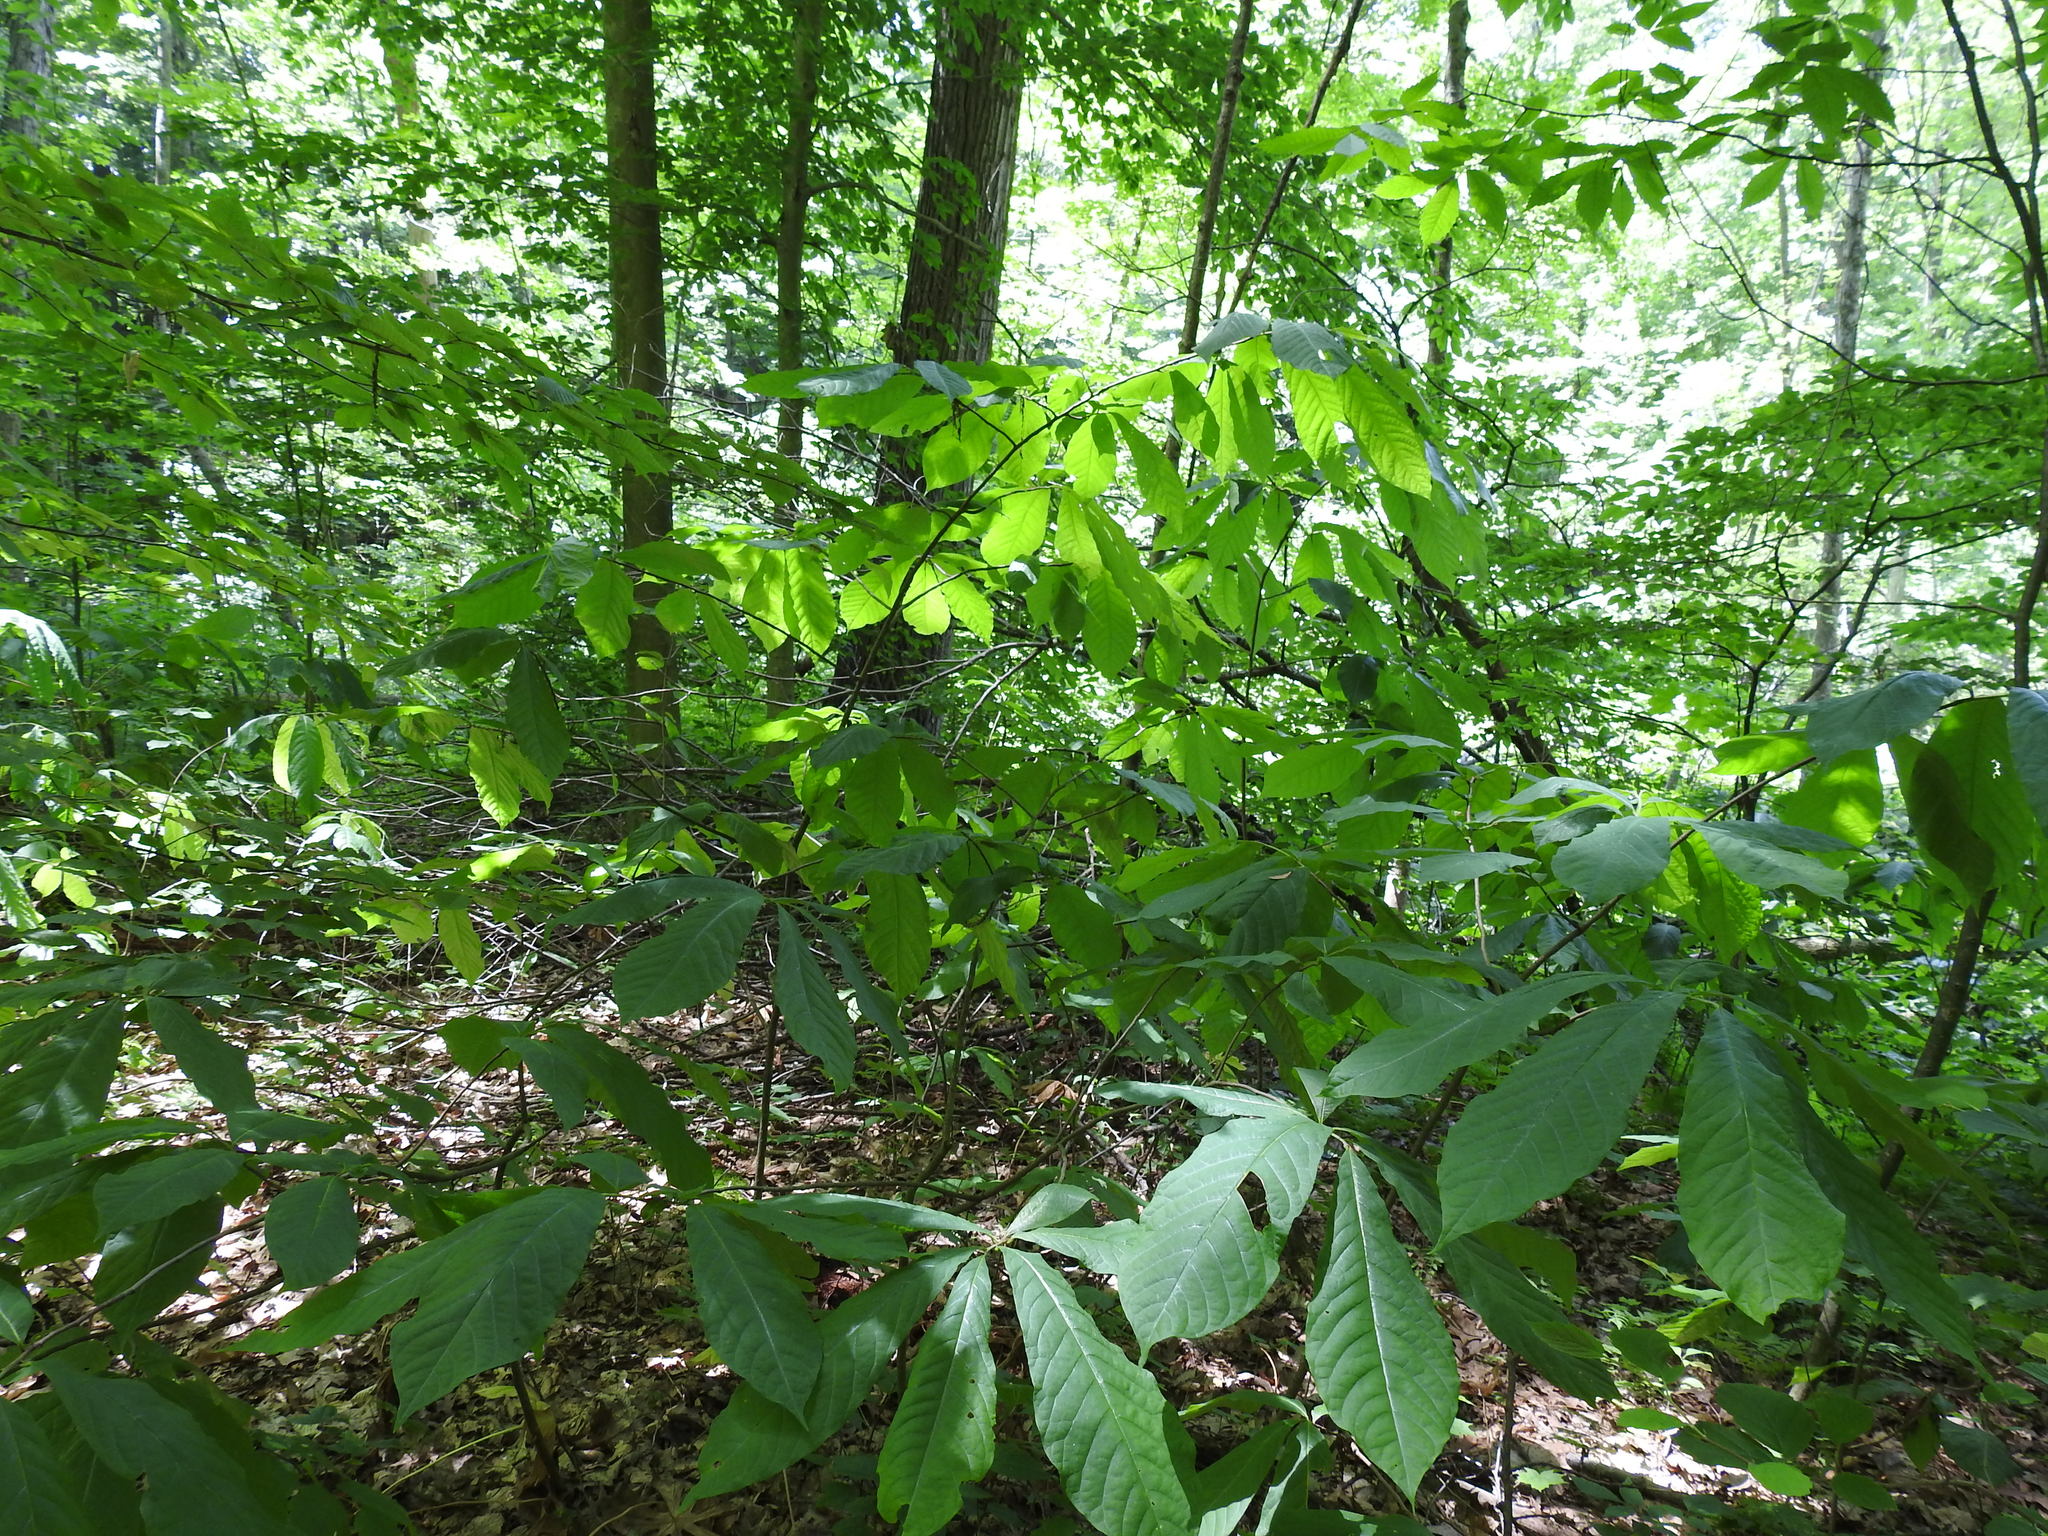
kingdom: Plantae
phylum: Tracheophyta
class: Magnoliopsida
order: Magnoliales
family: Annonaceae
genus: Asimina
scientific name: Asimina triloba
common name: Dog-banana
